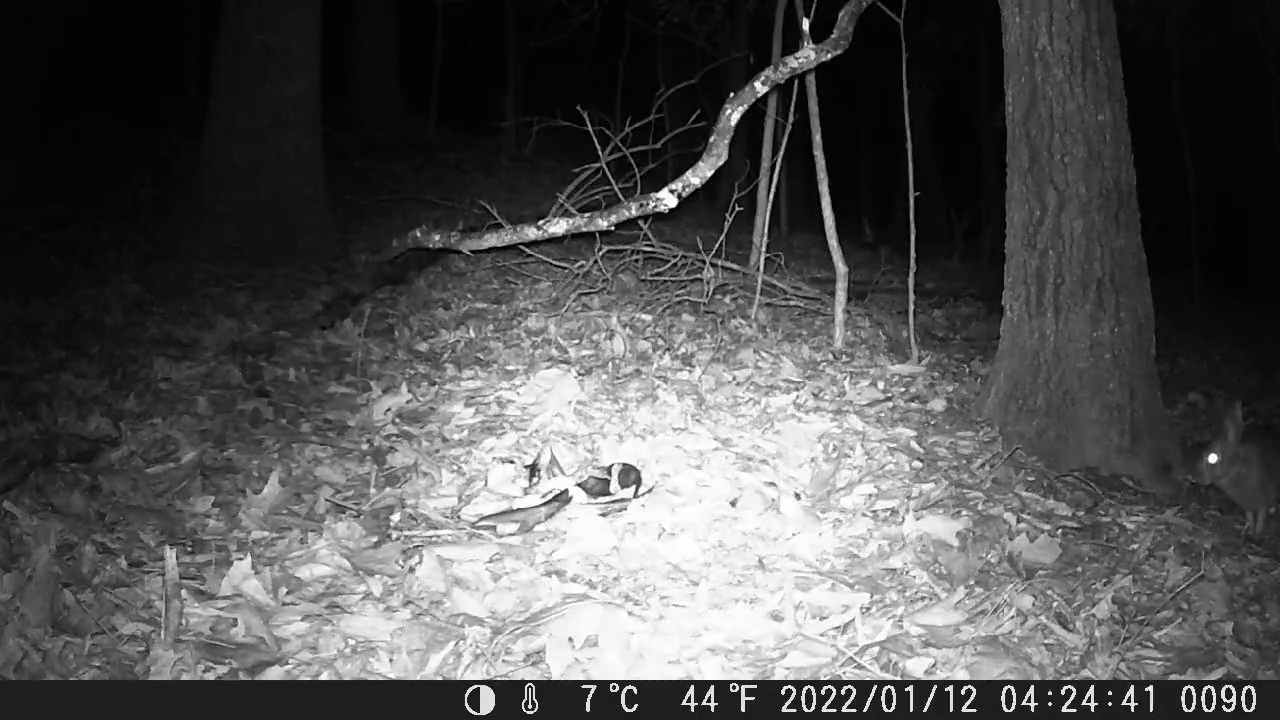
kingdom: Animalia
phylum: Chordata
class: Mammalia
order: Lagomorpha
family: Leporidae
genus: Sylvilagus
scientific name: Sylvilagus floridanus
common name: Eastern cottontail
